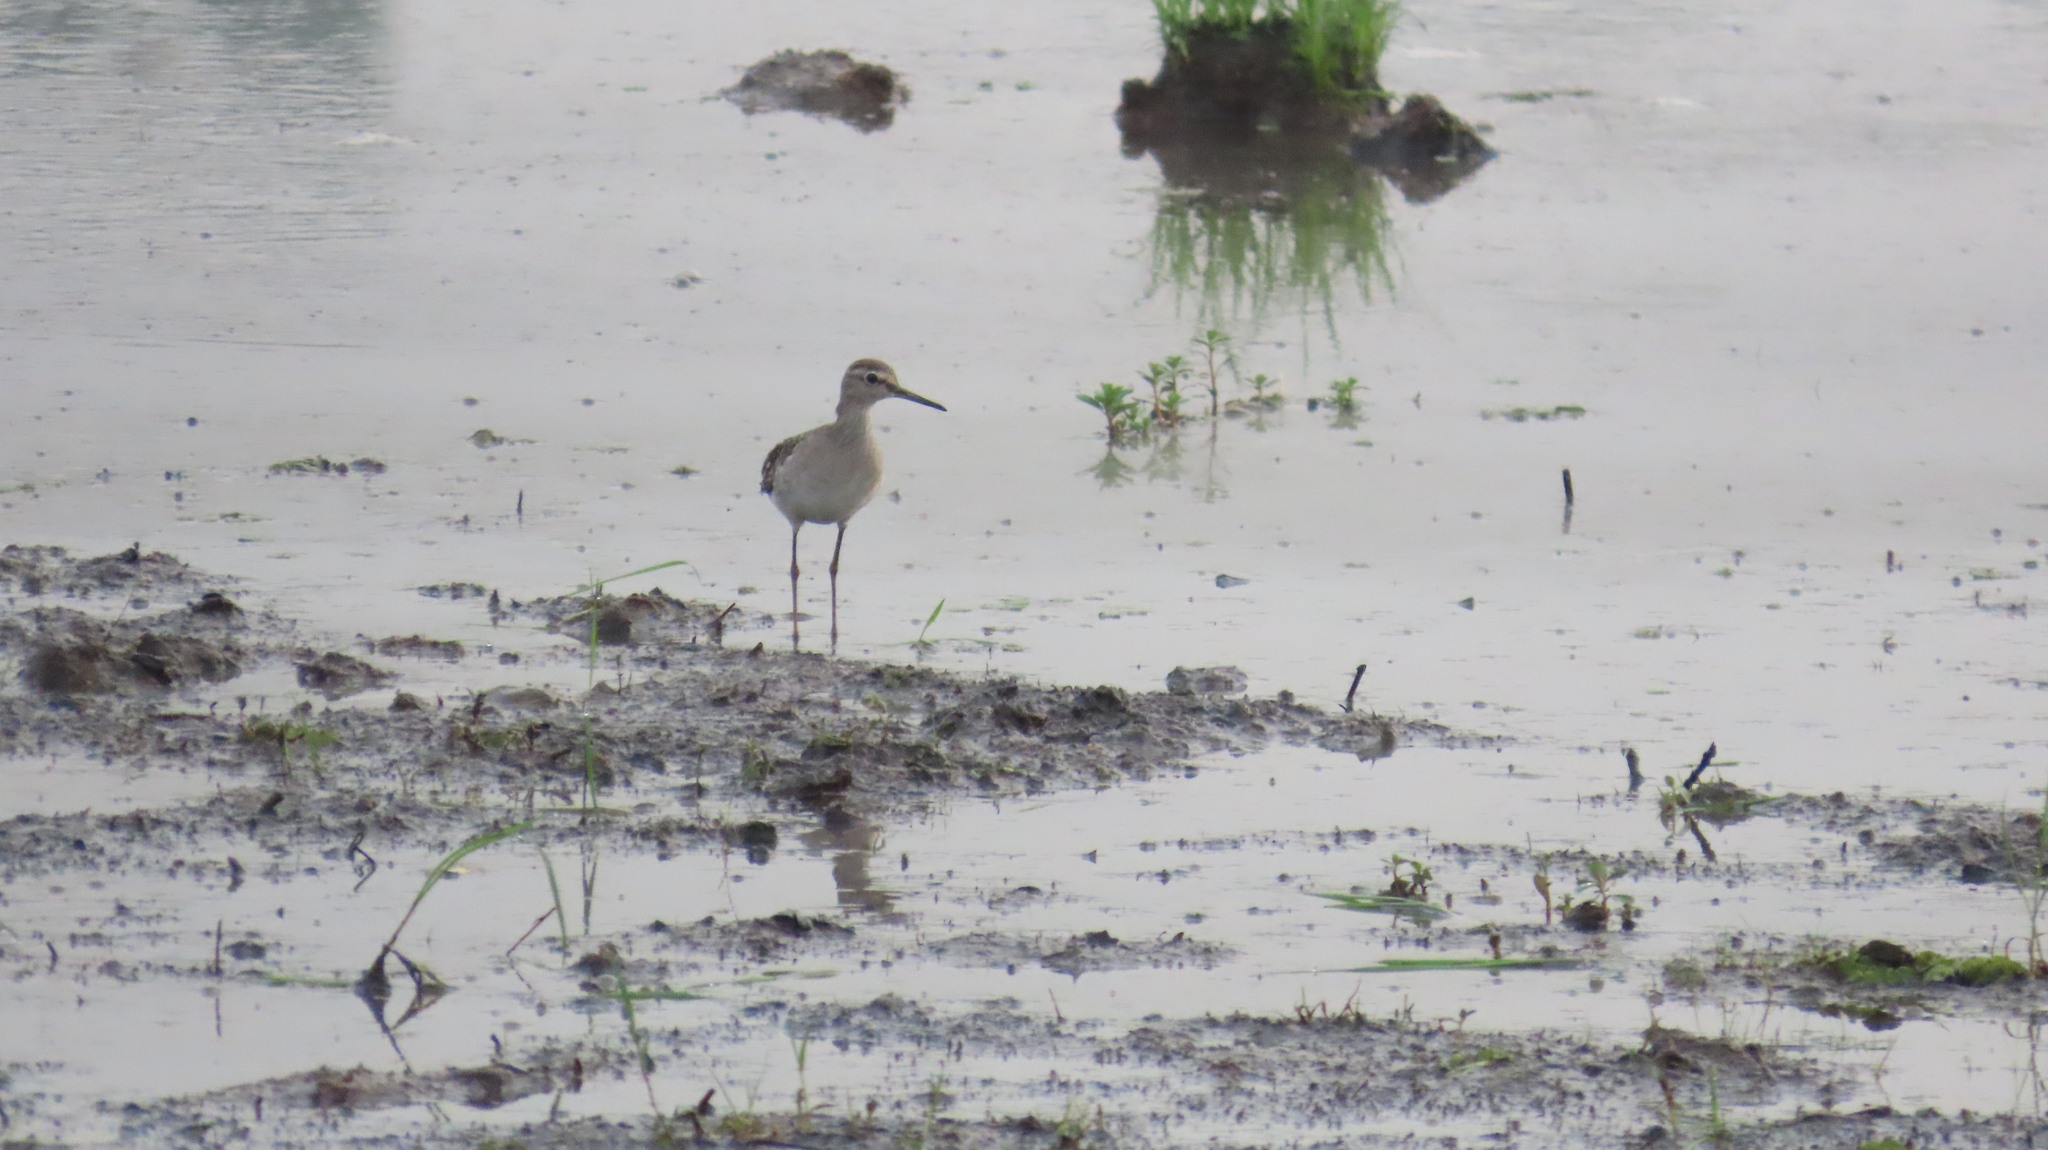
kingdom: Animalia
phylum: Chordata
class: Aves
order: Charadriiformes
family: Scolopacidae
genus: Tringa
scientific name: Tringa glareola
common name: Wood sandpiper
